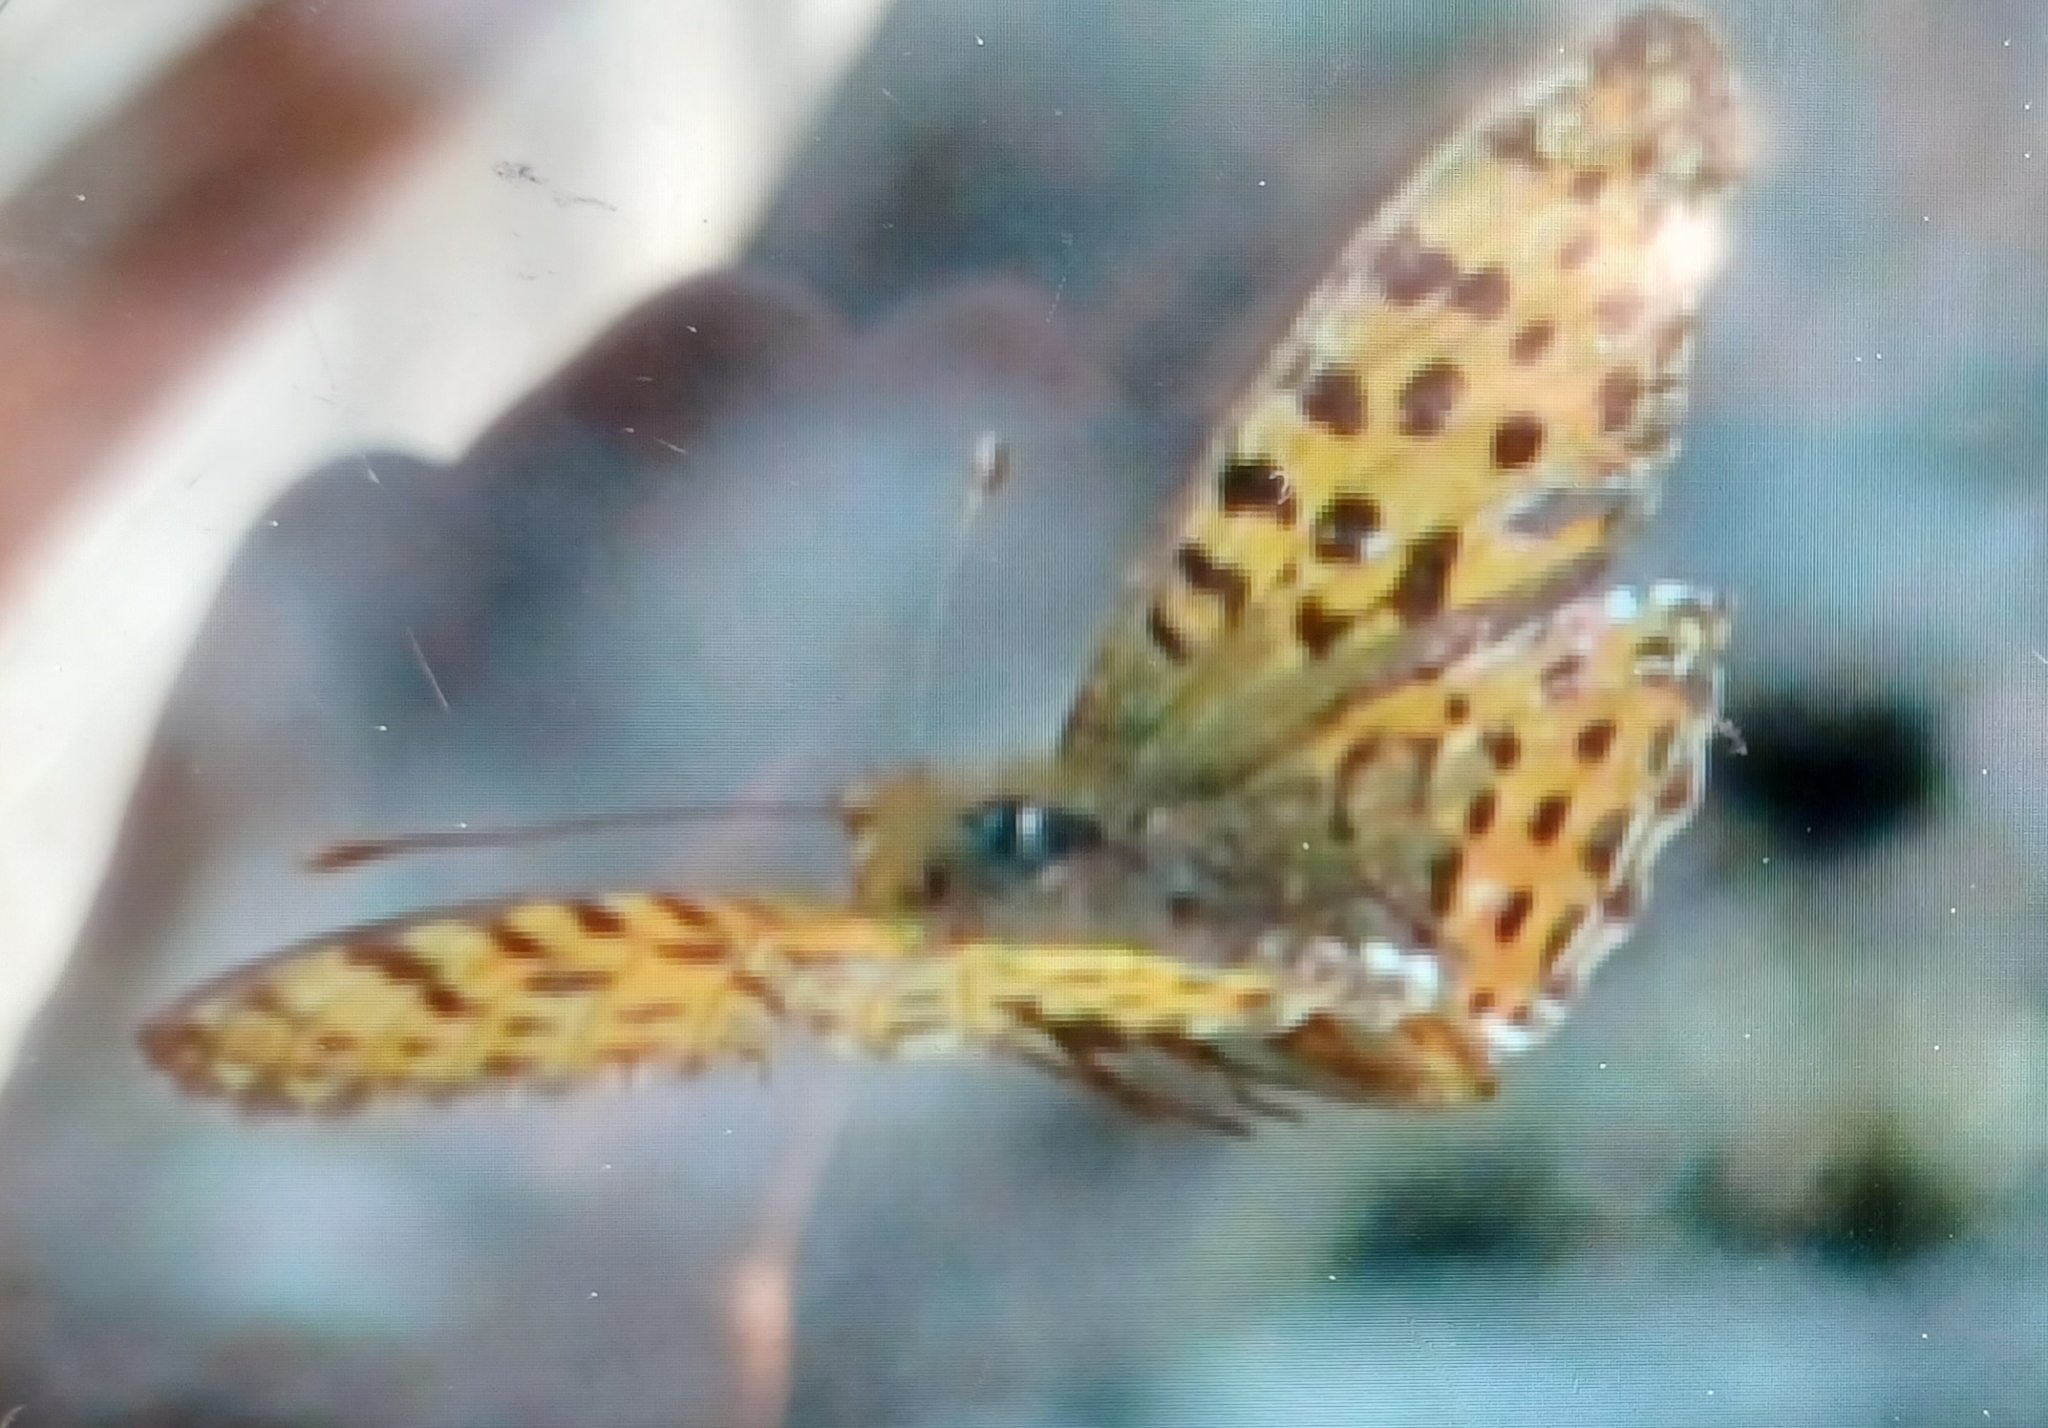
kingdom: Animalia
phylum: Arthropoda
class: Insecta
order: Lepidoptera
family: Nymphalidae
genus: Issoria
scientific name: Issoria lathonia
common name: Queen of spain fritillary
